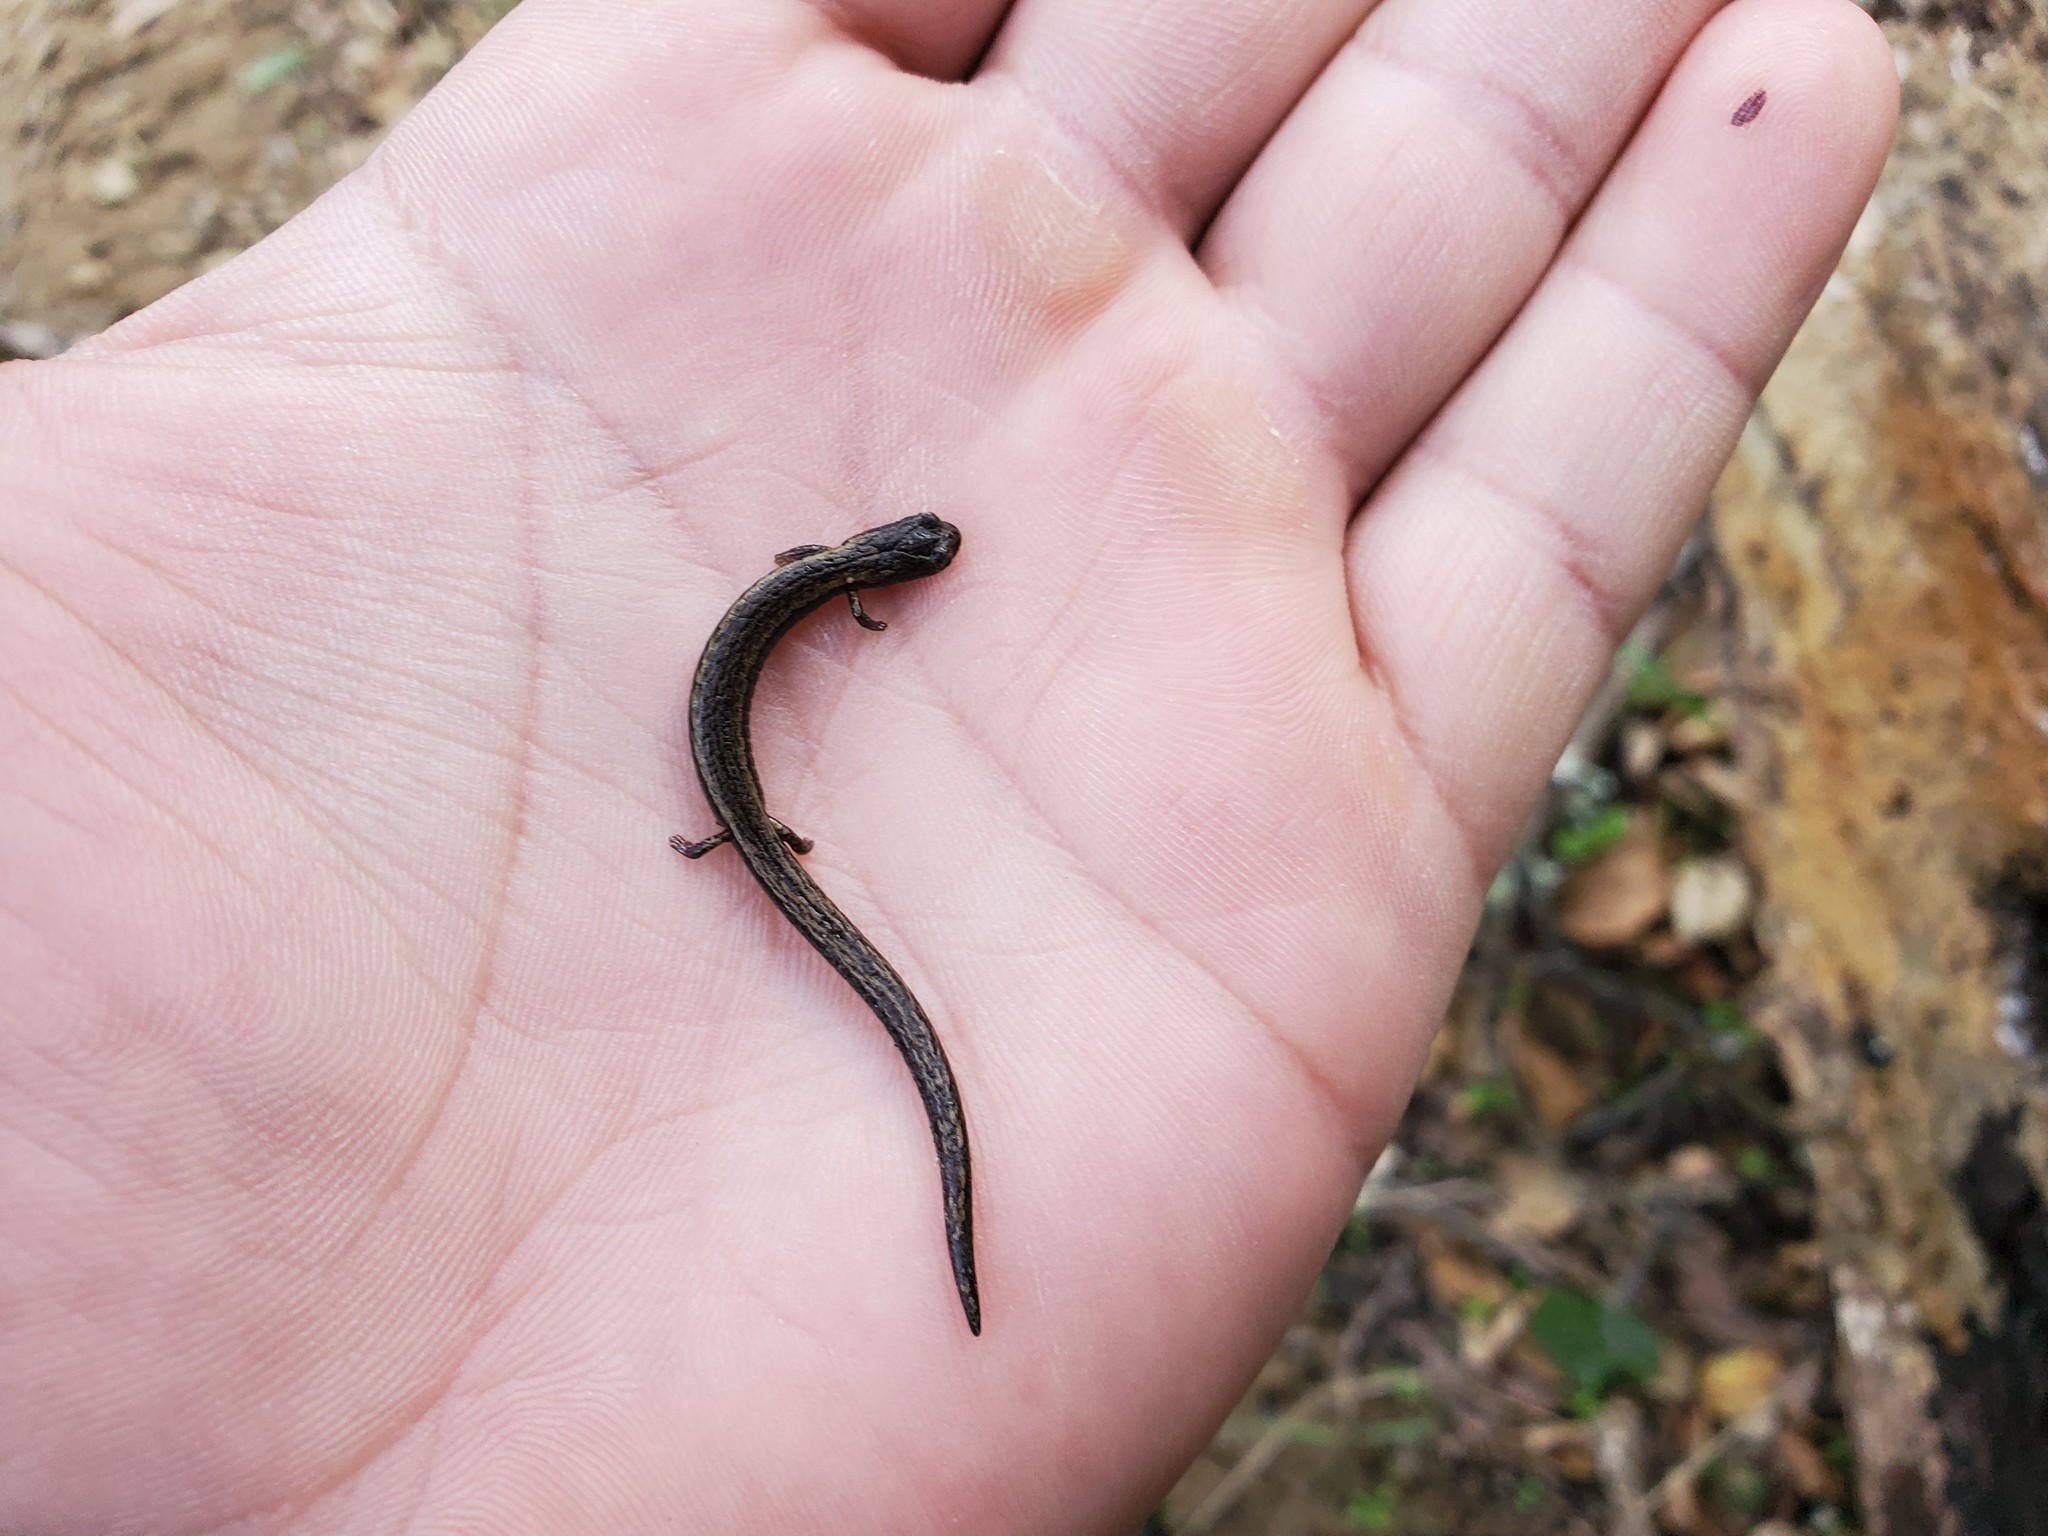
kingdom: Animalia
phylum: Chordata
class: Amphibia
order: Caudata
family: Plethodontidae
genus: Batrachoseps
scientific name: Batrachoseps attenuatus
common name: California slender salamander
